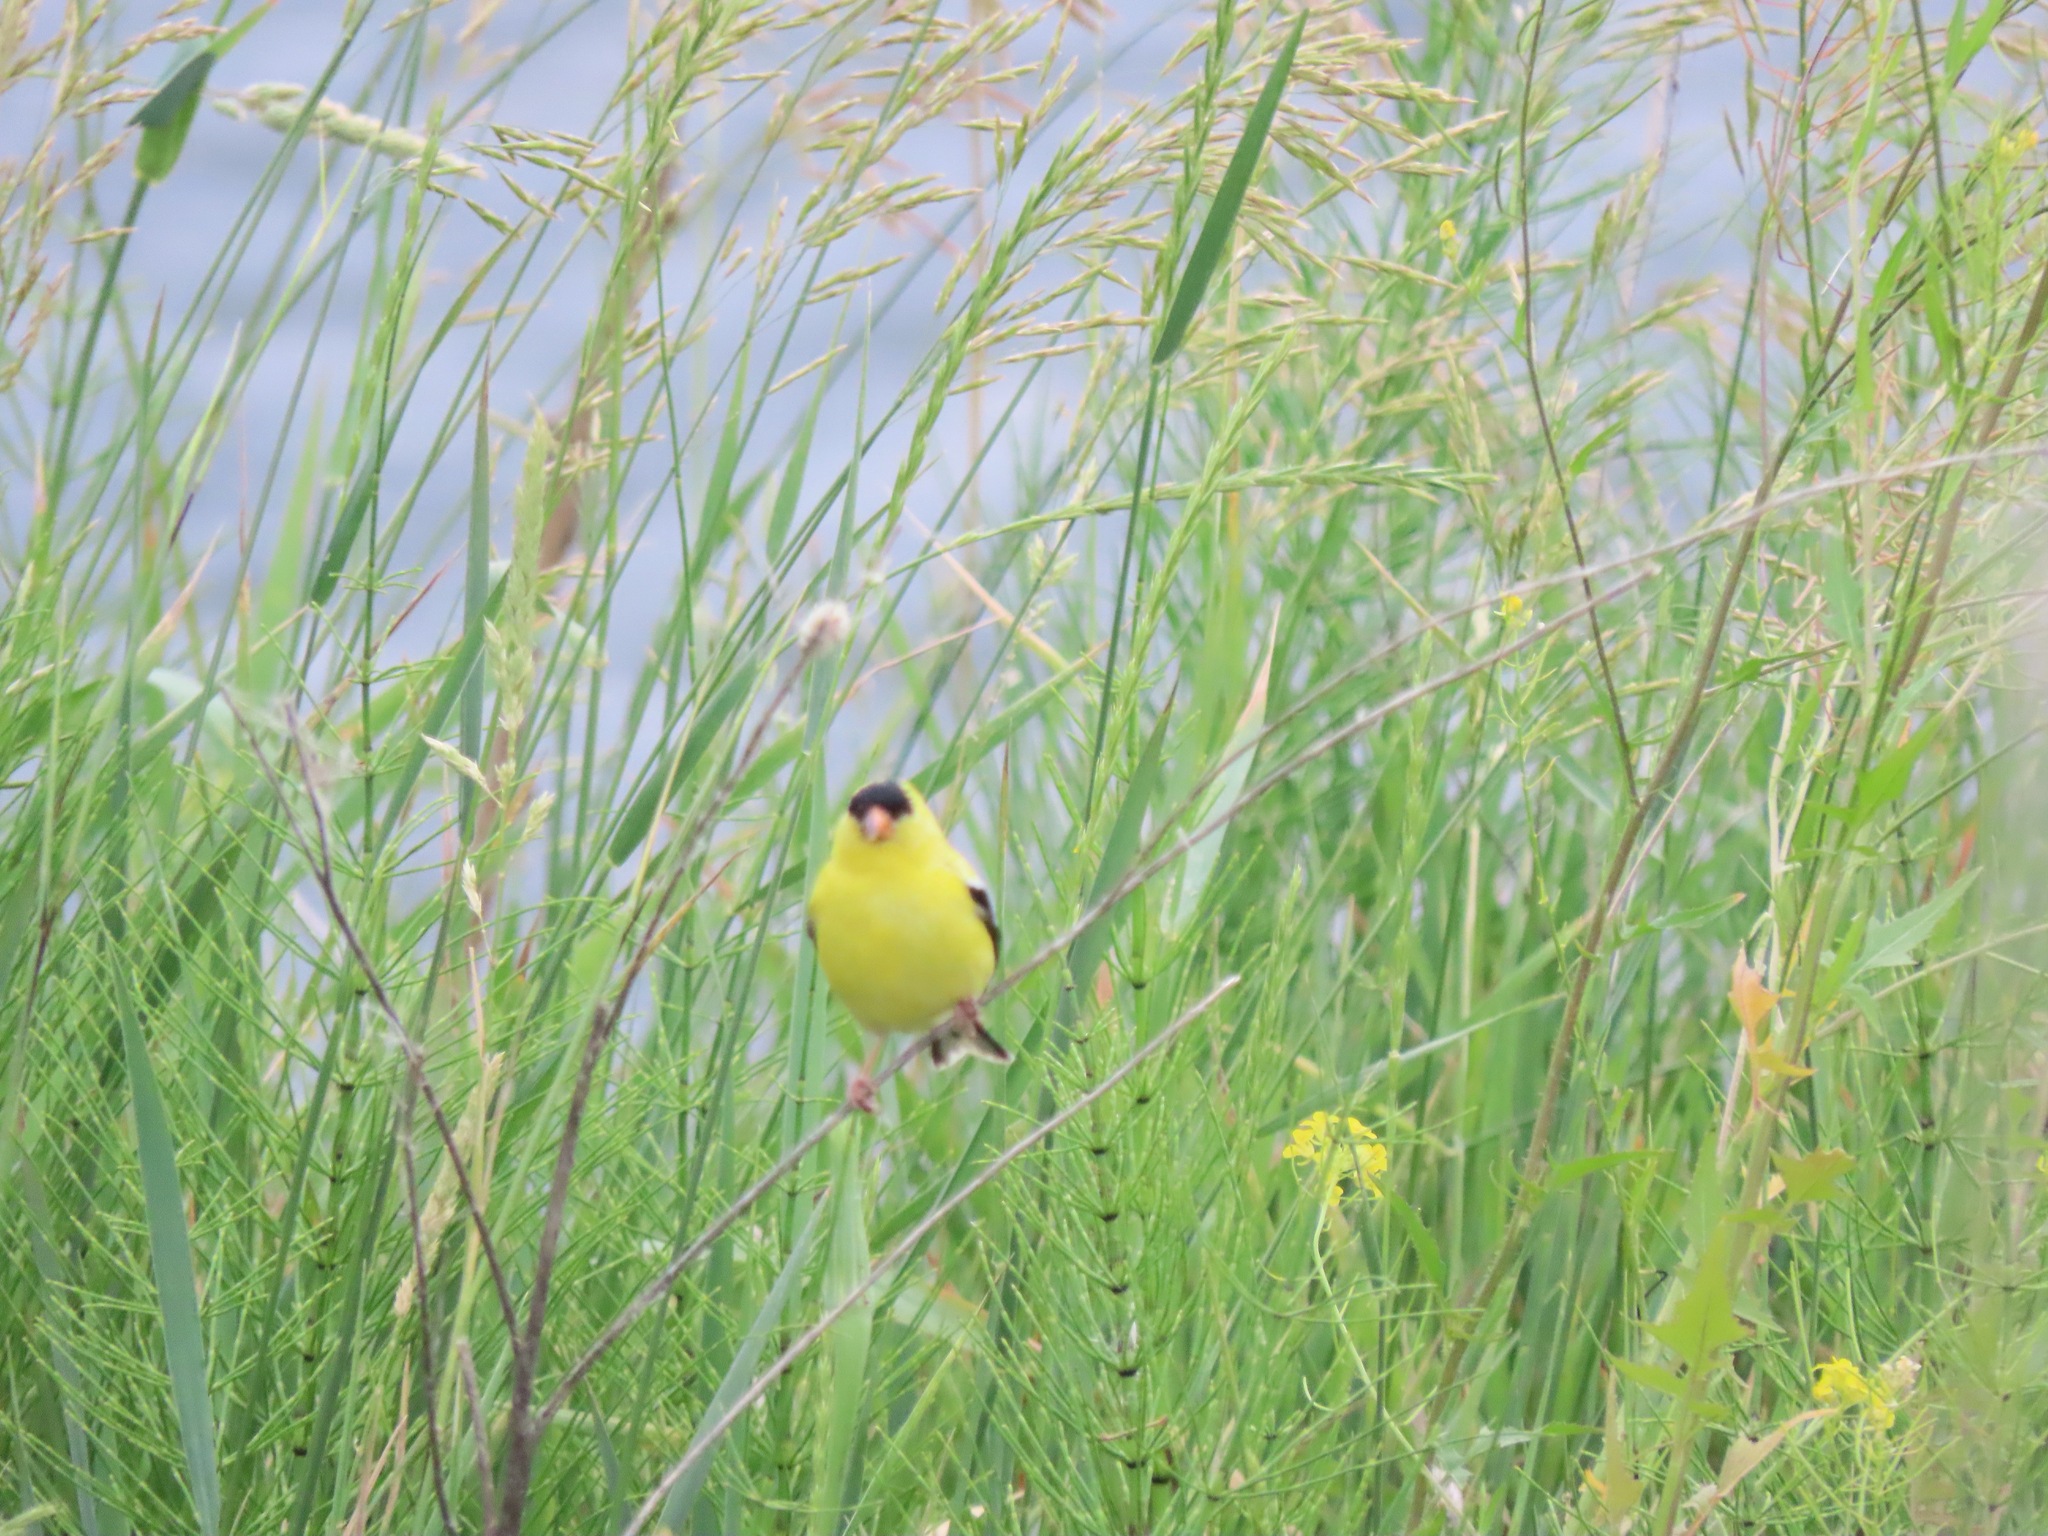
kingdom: Animalia
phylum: Chordata
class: Aves
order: Passeriformes
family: Fringillidae
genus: Spinus
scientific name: Spinus tristis
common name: American goldfinch
